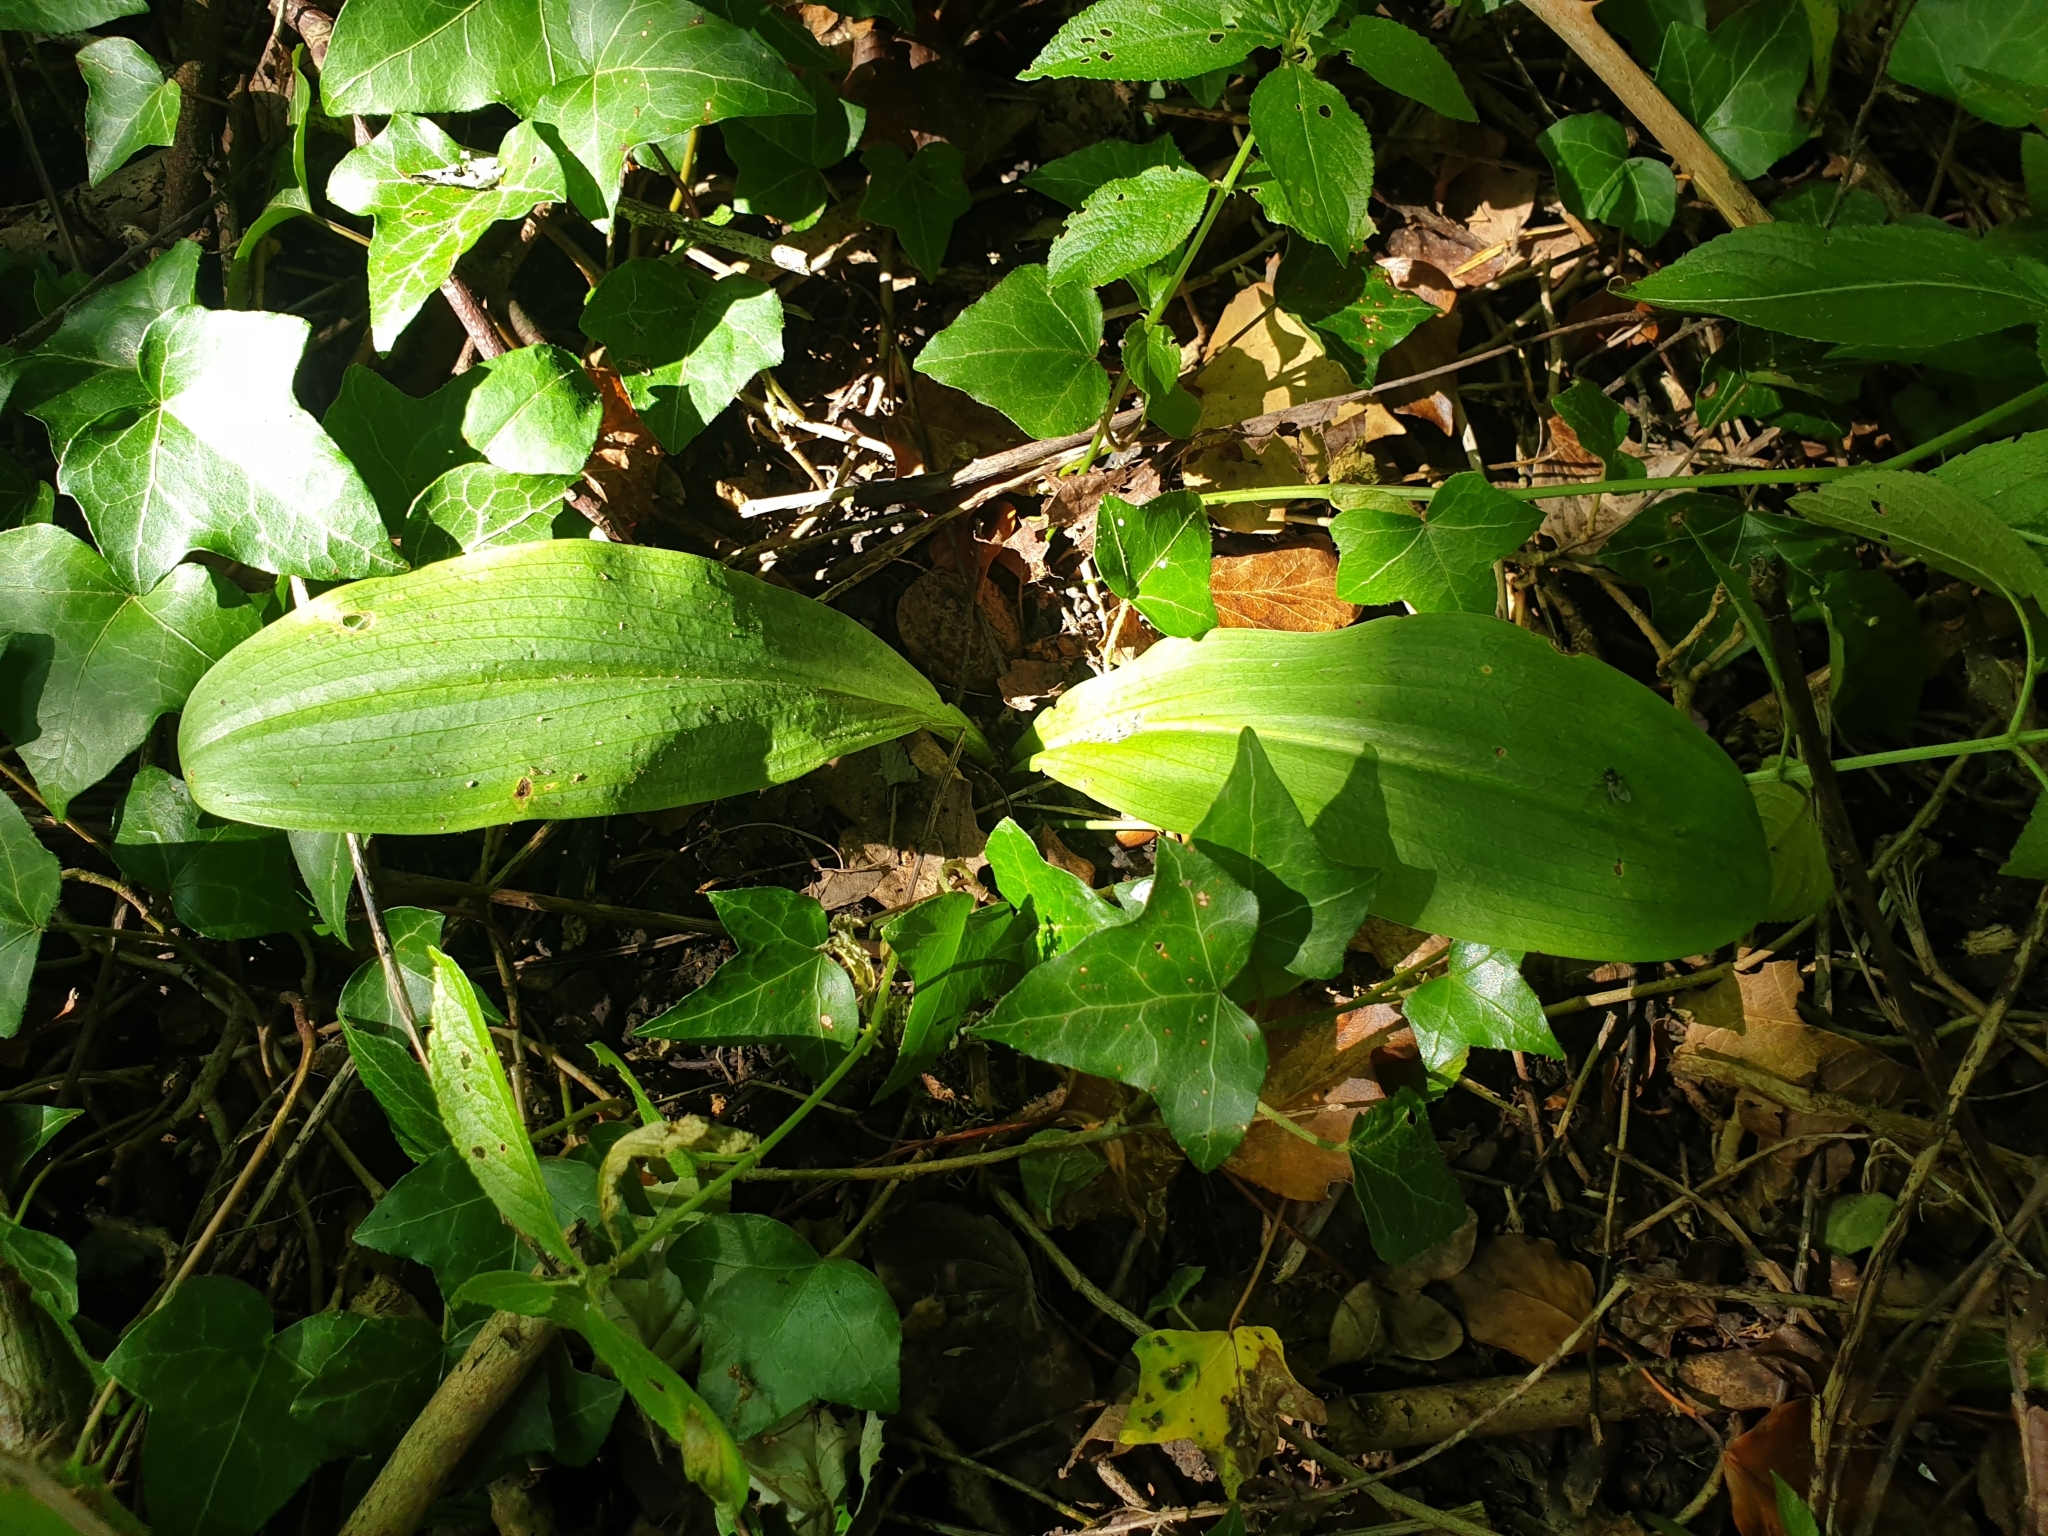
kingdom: Plantae
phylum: Tracheophyta
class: Liliopsida
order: Asparagales
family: Asparagaceae
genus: Convallaria
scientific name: Convallaria majalis
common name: Lily-of-the-valley
